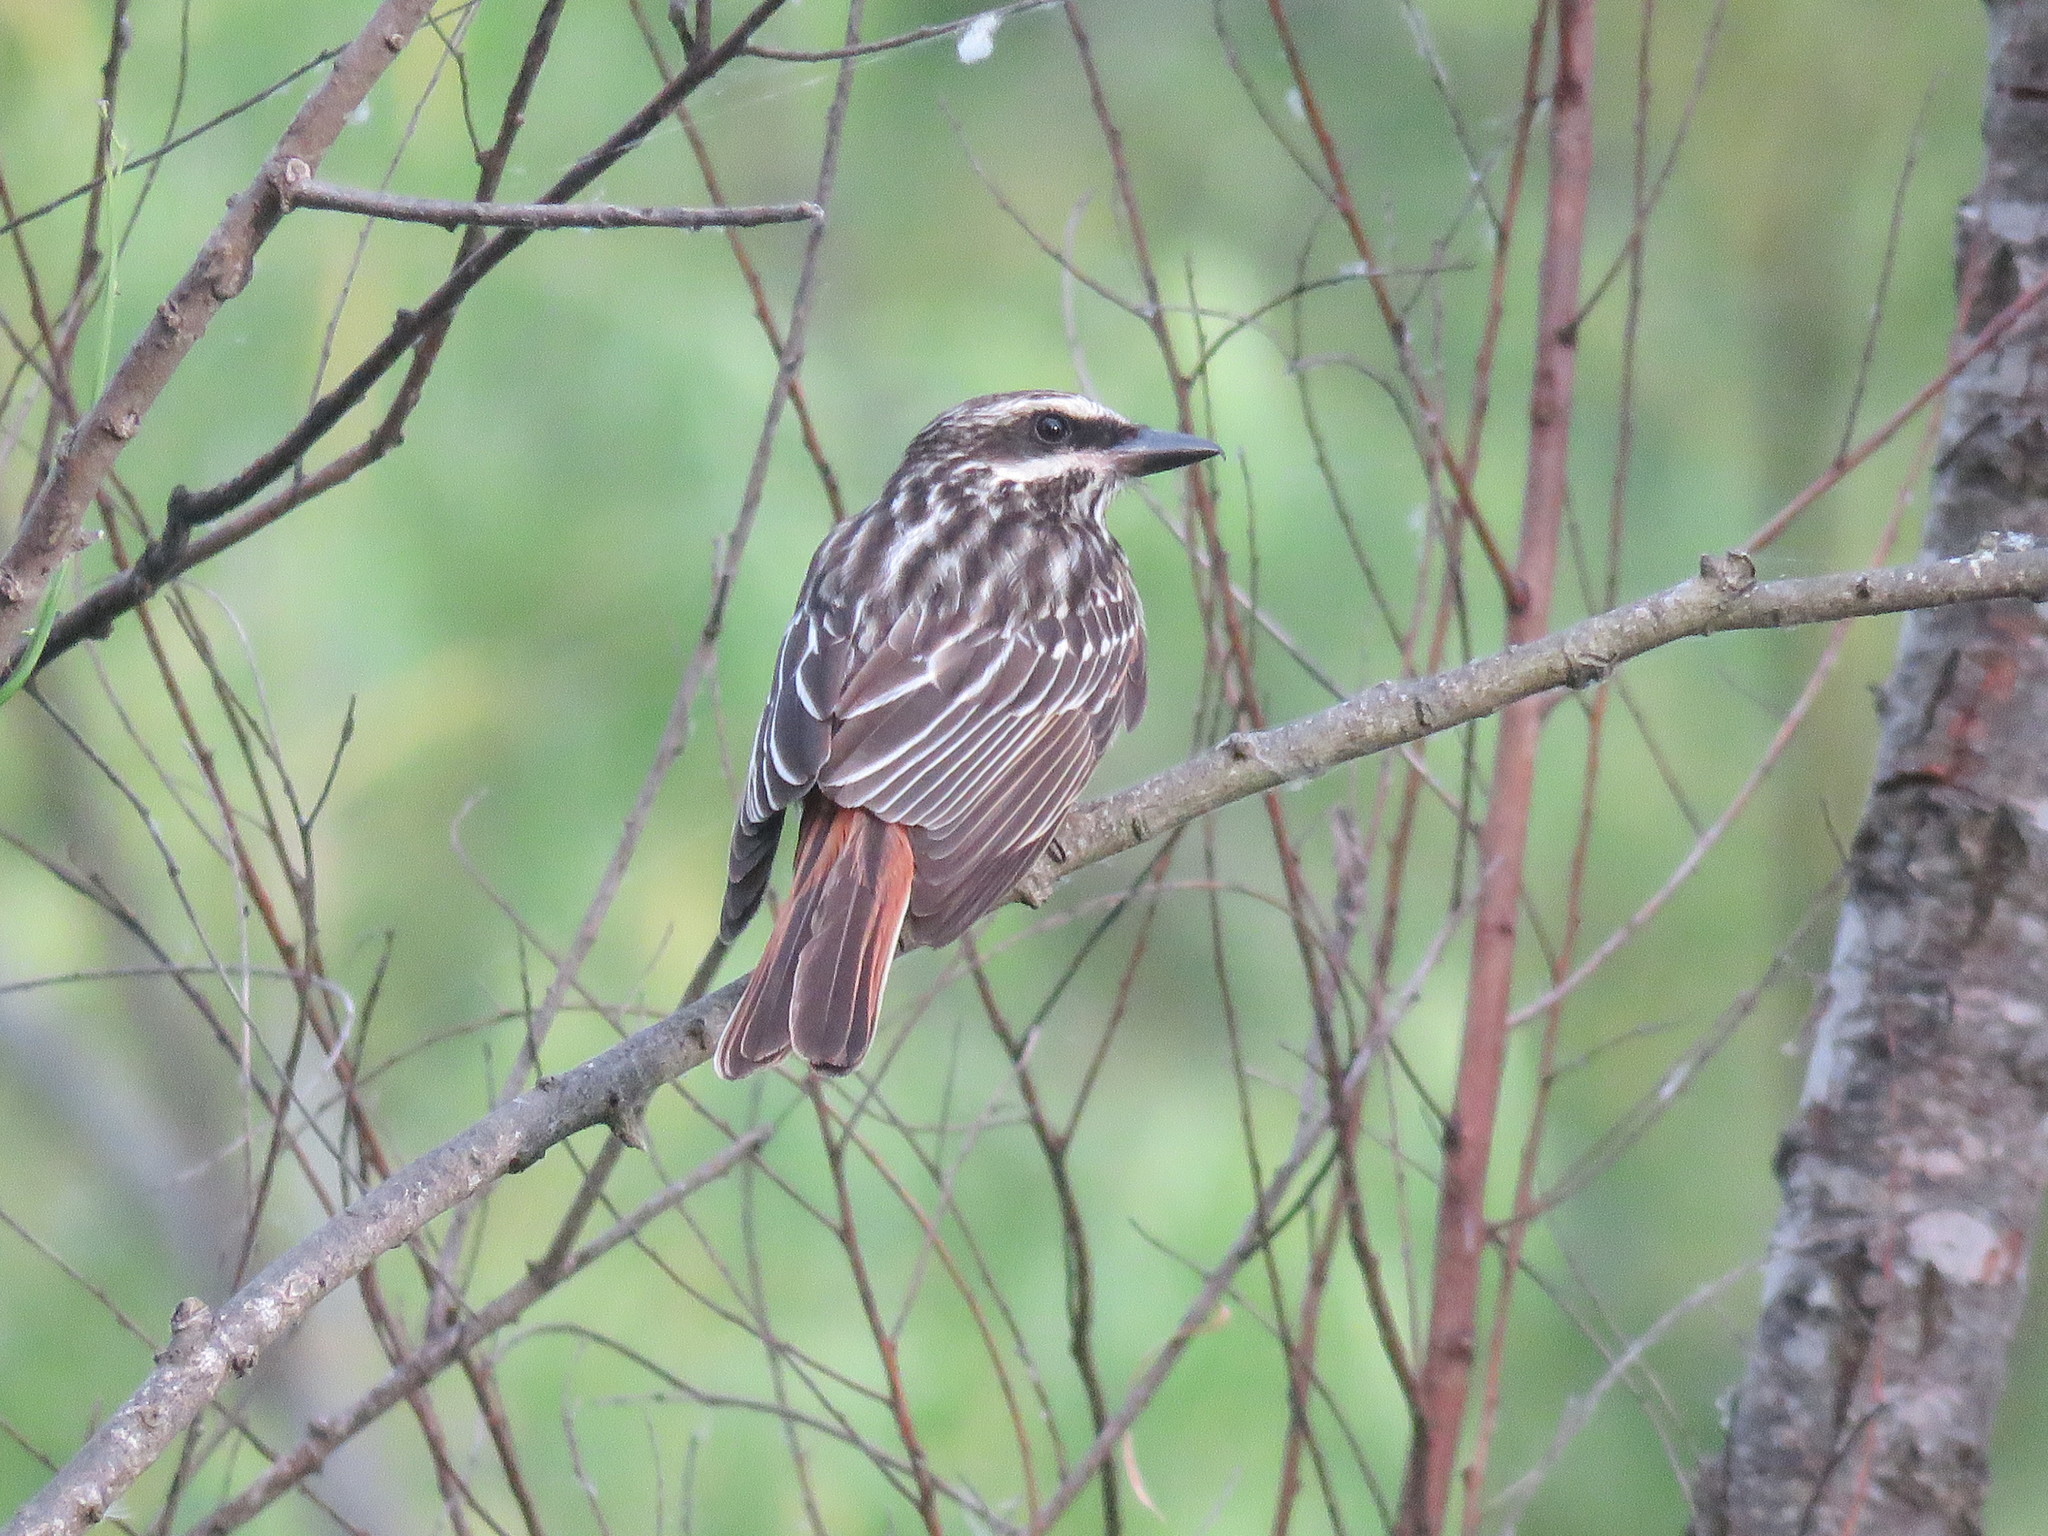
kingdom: Animalia
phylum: Chordata
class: Aves
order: Passeriformes
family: Tyrannidae
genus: Myiodynastes
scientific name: Myiodynastes maculatus
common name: Streaked flycatcher
